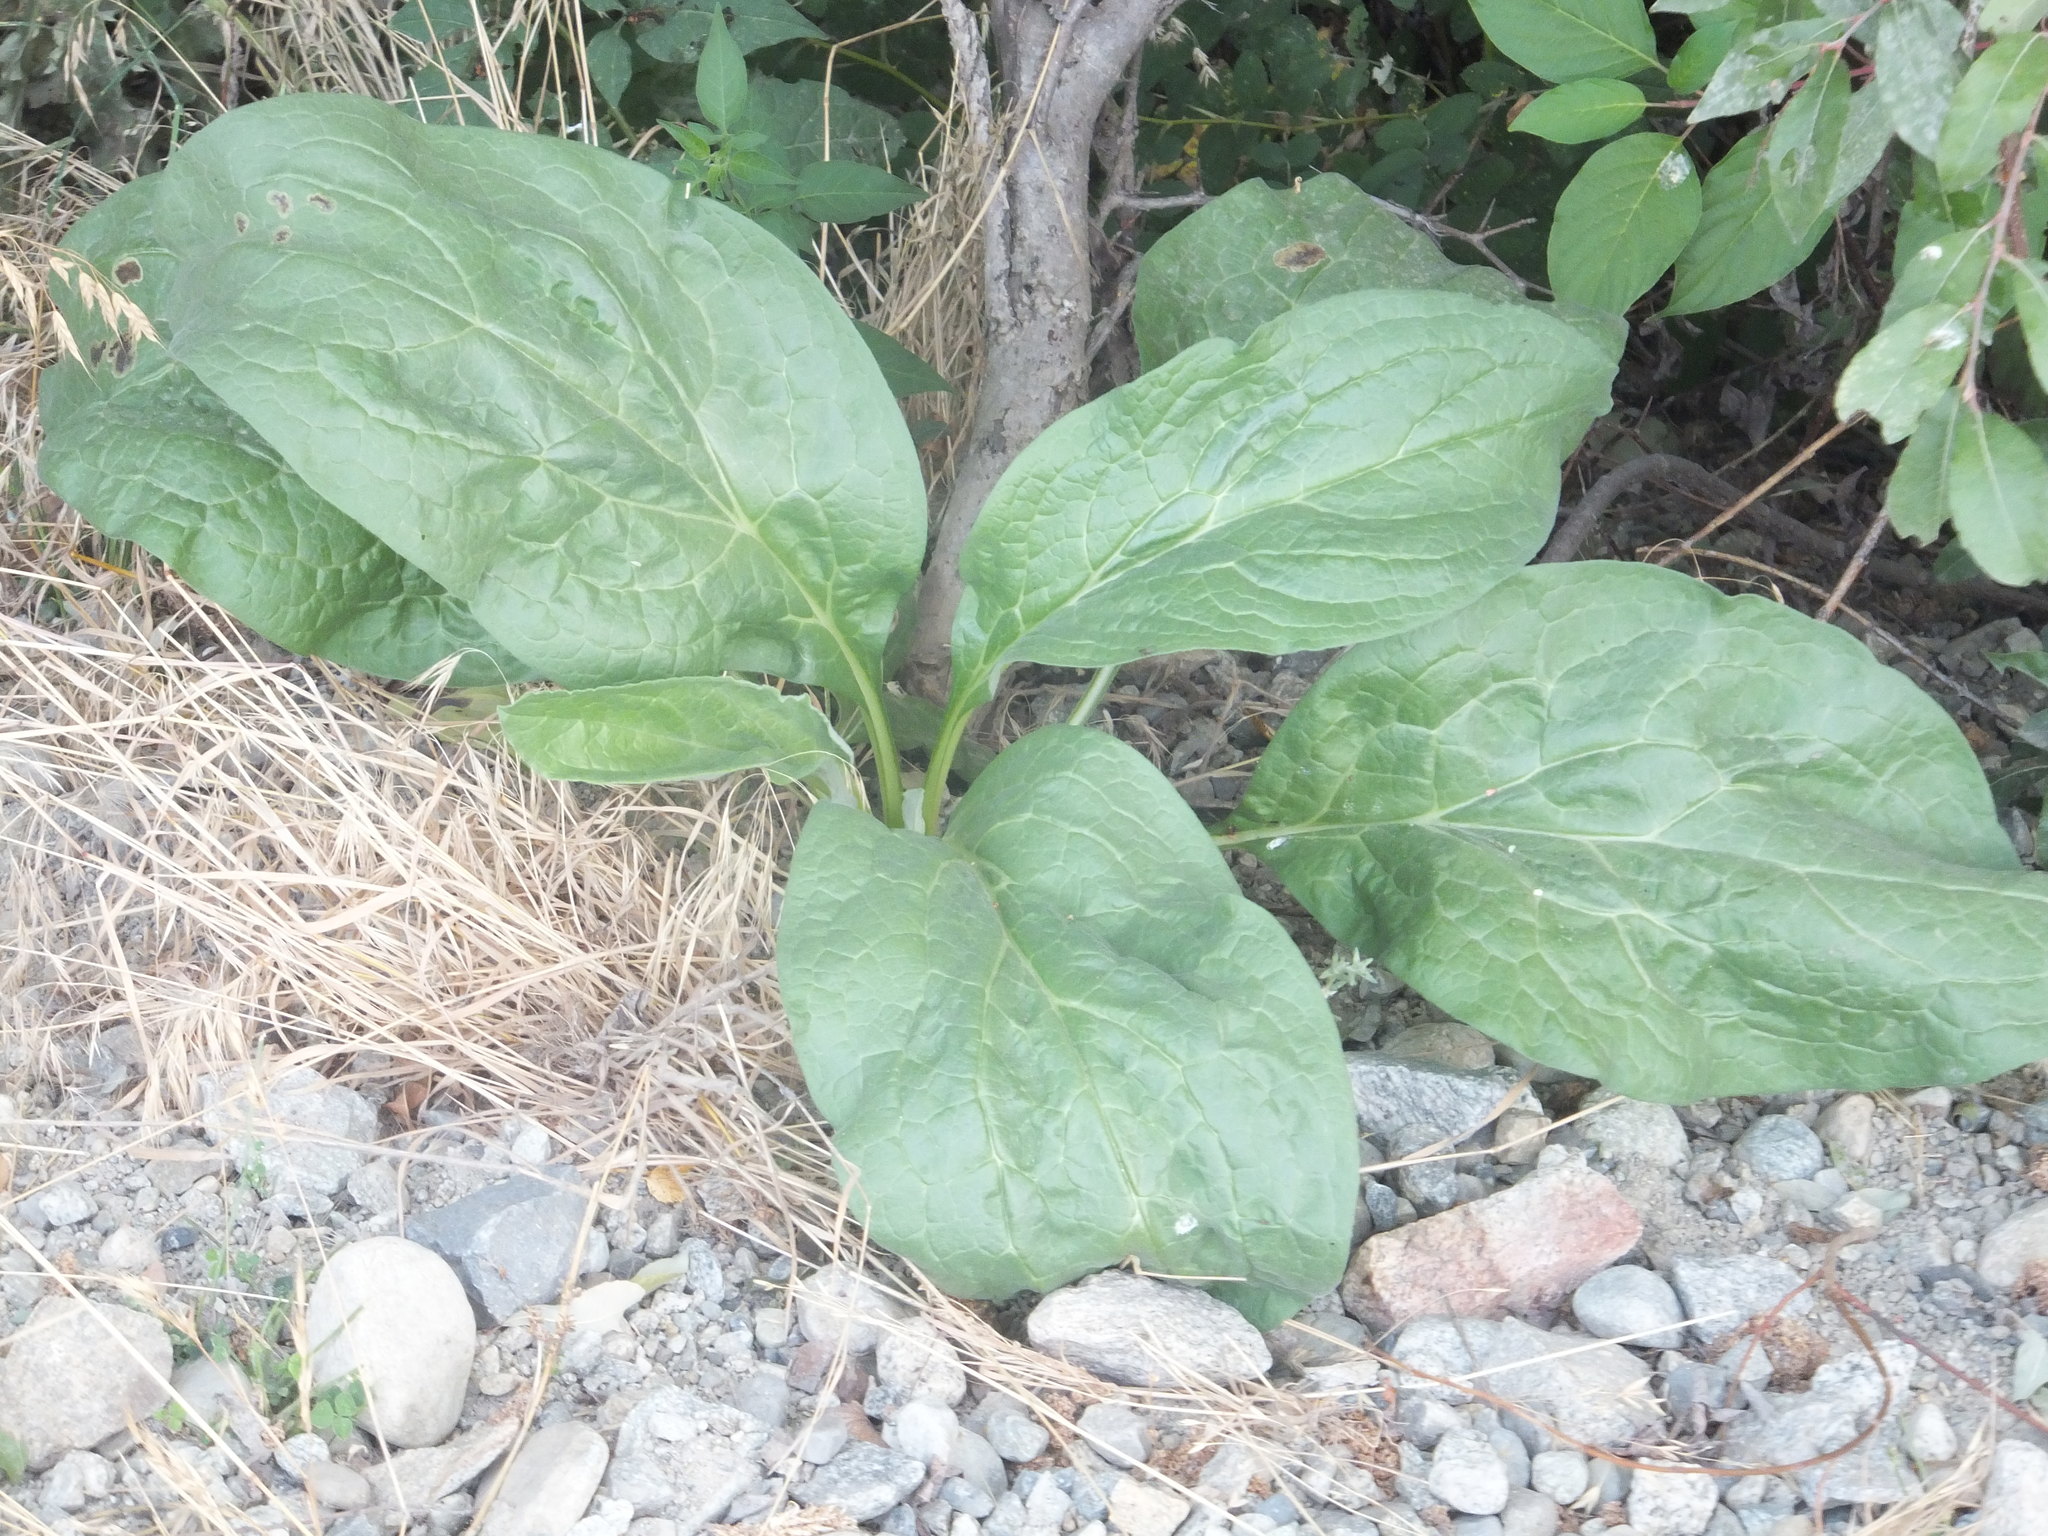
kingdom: Plantae
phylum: Tracheophyta
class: Magnoliopsida
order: Boraginales
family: Boraginaceae
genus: Cynoglossum
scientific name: Cynoglossum officinale
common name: Hound's-tongue
